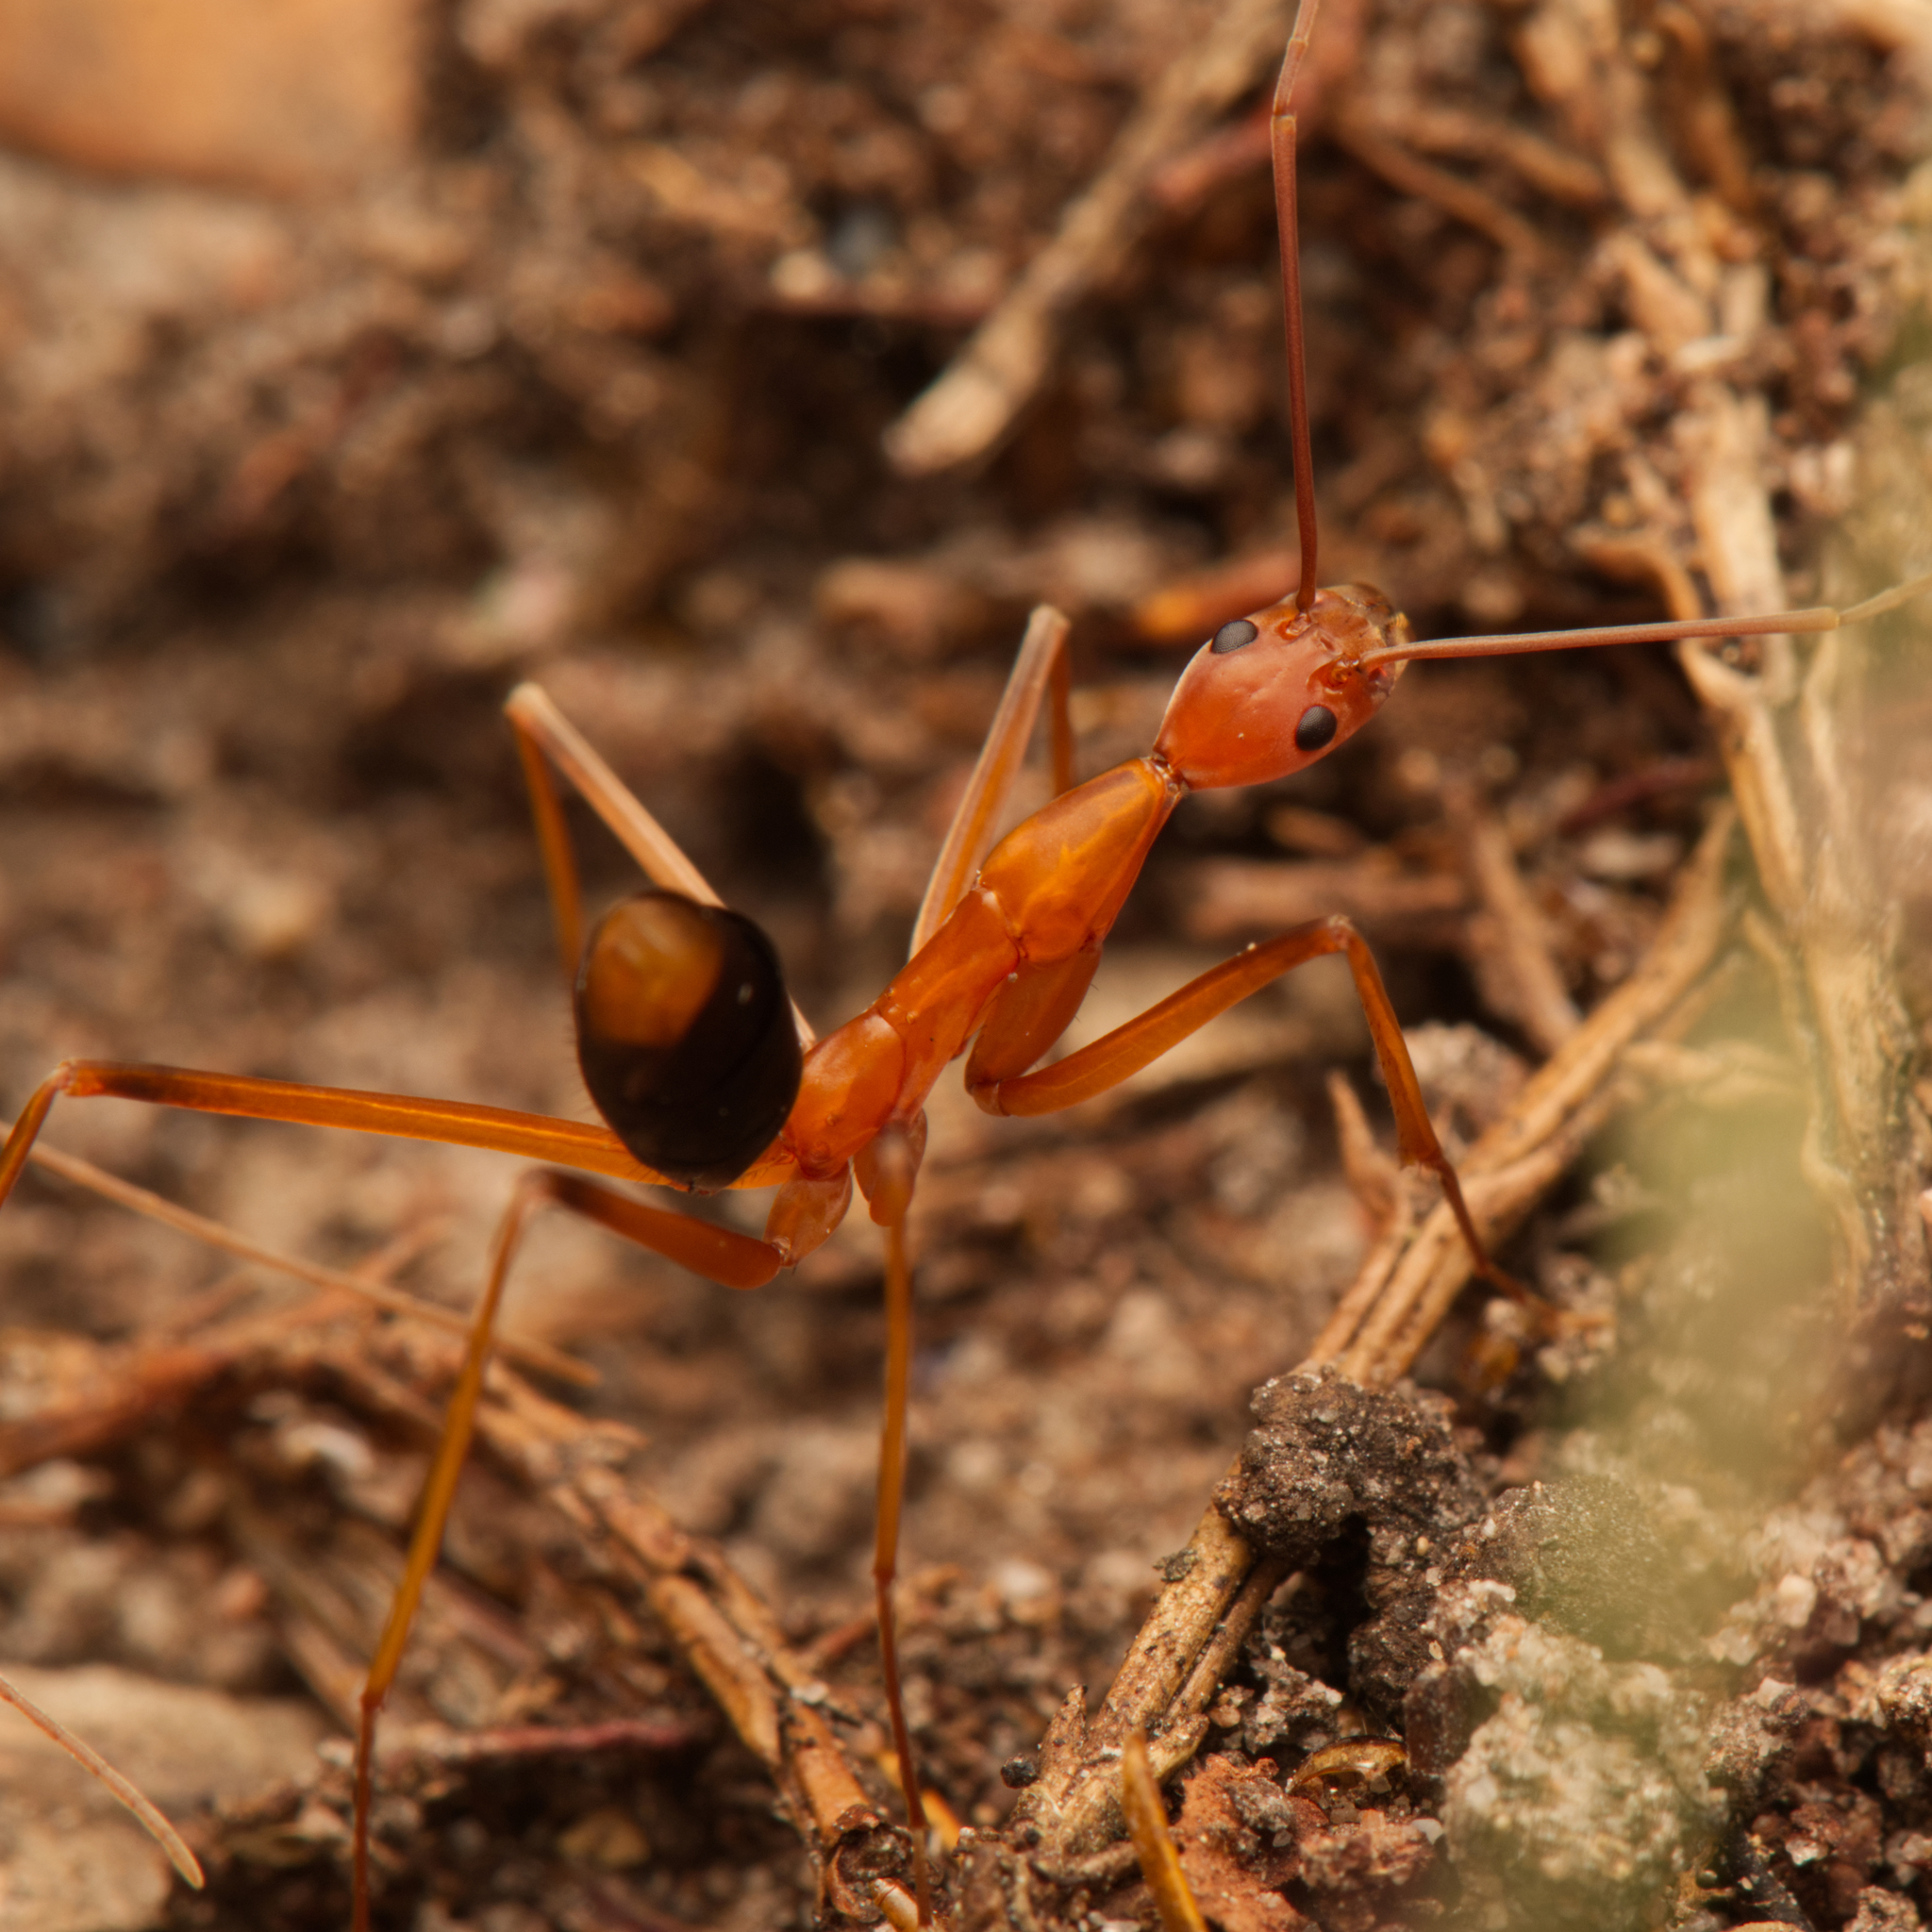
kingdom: Animalia
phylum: Arthropoda
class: Insecta
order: Hymenoptera
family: Formicidae
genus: Leptomyrmex
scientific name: Leptomyrmex rufipes
